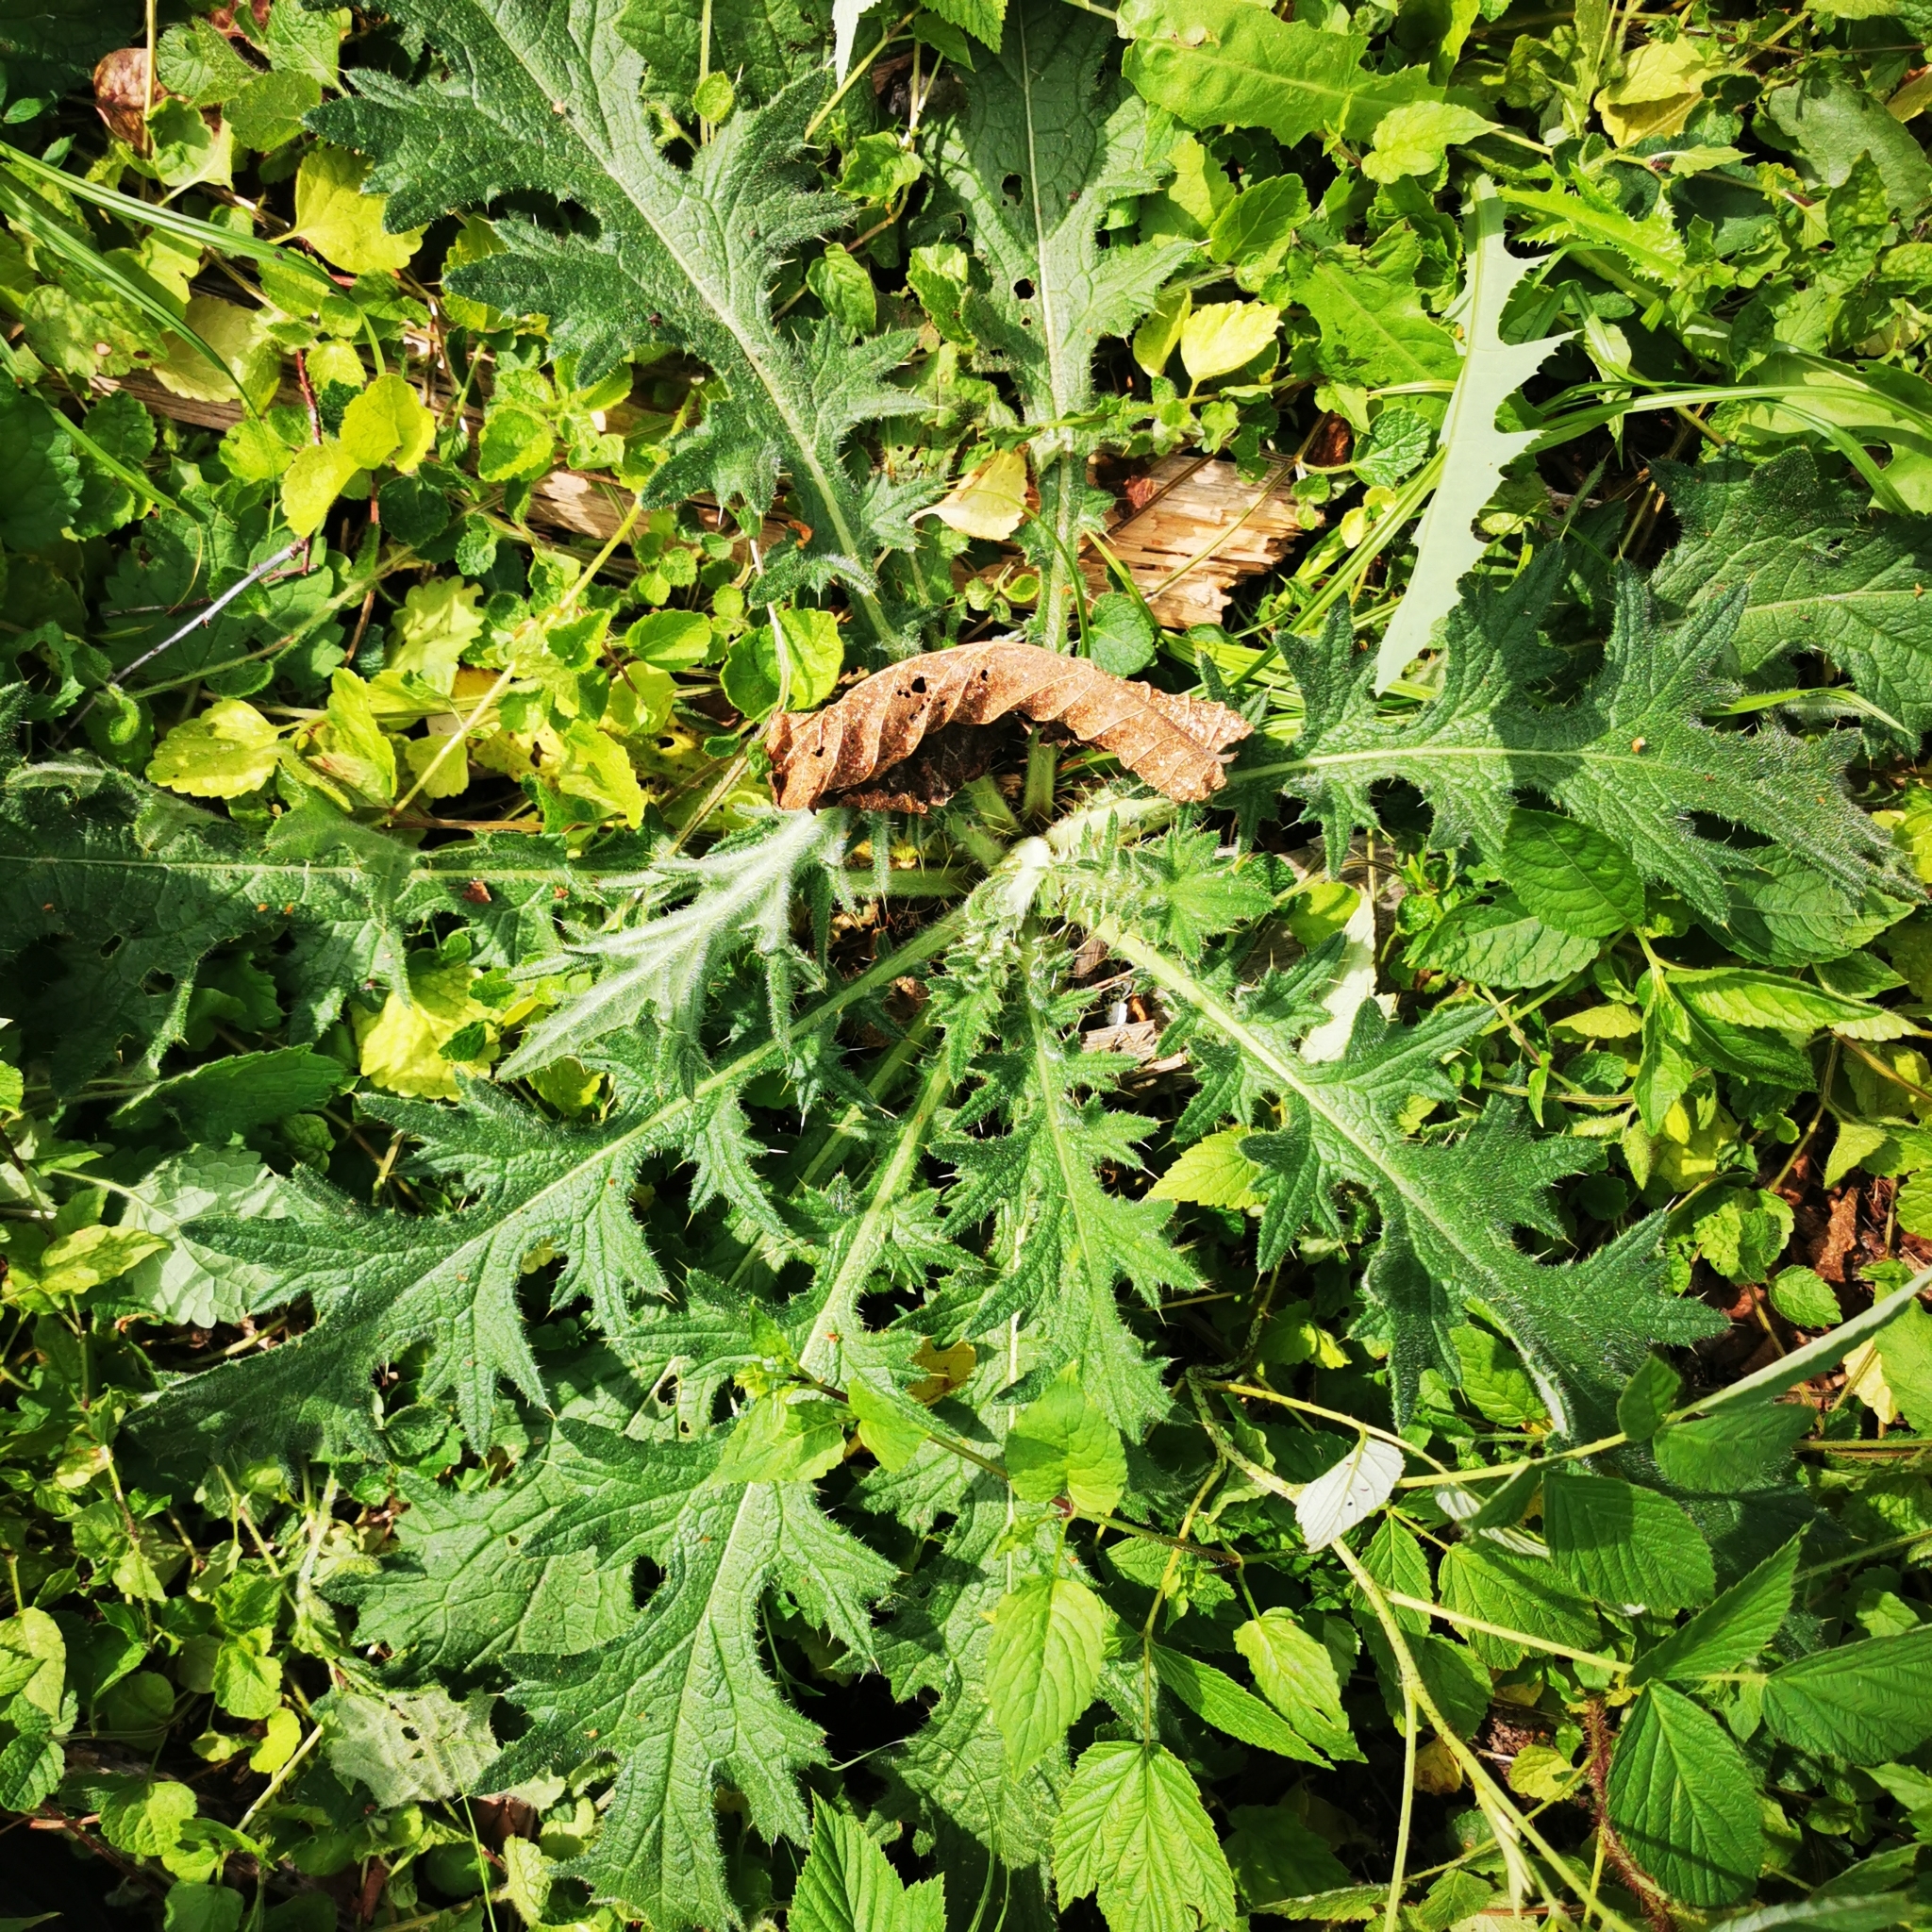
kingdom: Plantae
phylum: Tracheophyta
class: Magnoliopsida
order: Asterales
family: Asteraceae
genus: Cirsium
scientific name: Cirsium vulgare
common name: Bull thistle
